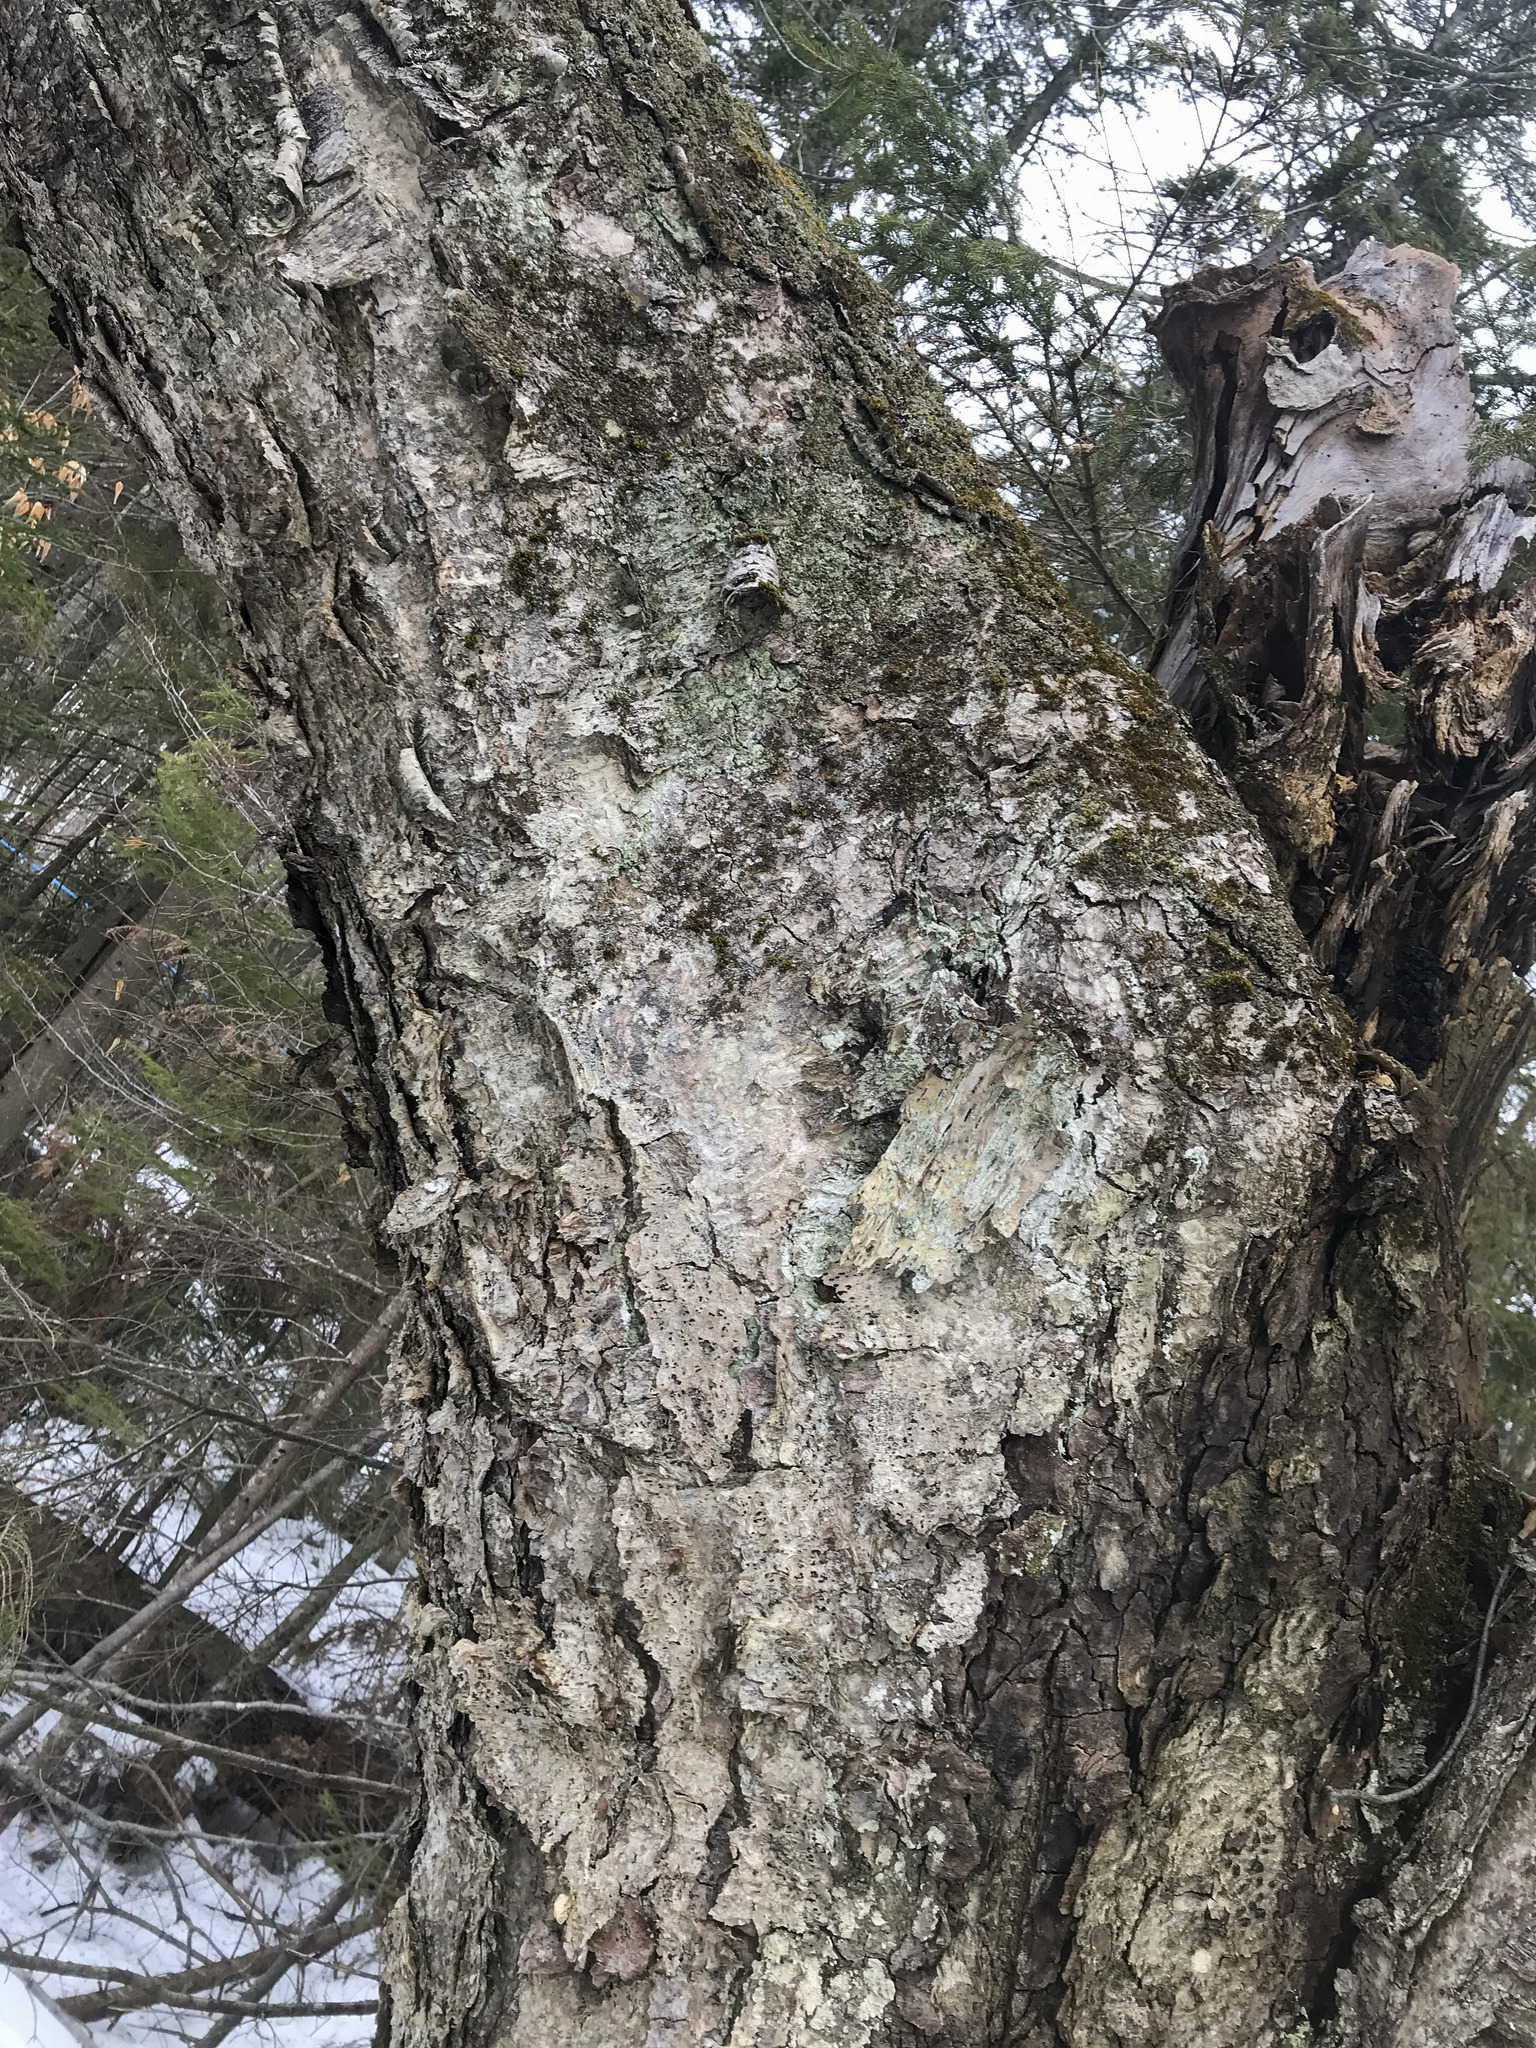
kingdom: Plantae
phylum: Tracheophyta
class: Magnoliopsida
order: Fagales
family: Betulaceae
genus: Betula
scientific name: Betula alleghaniensis
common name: Yellow birch
